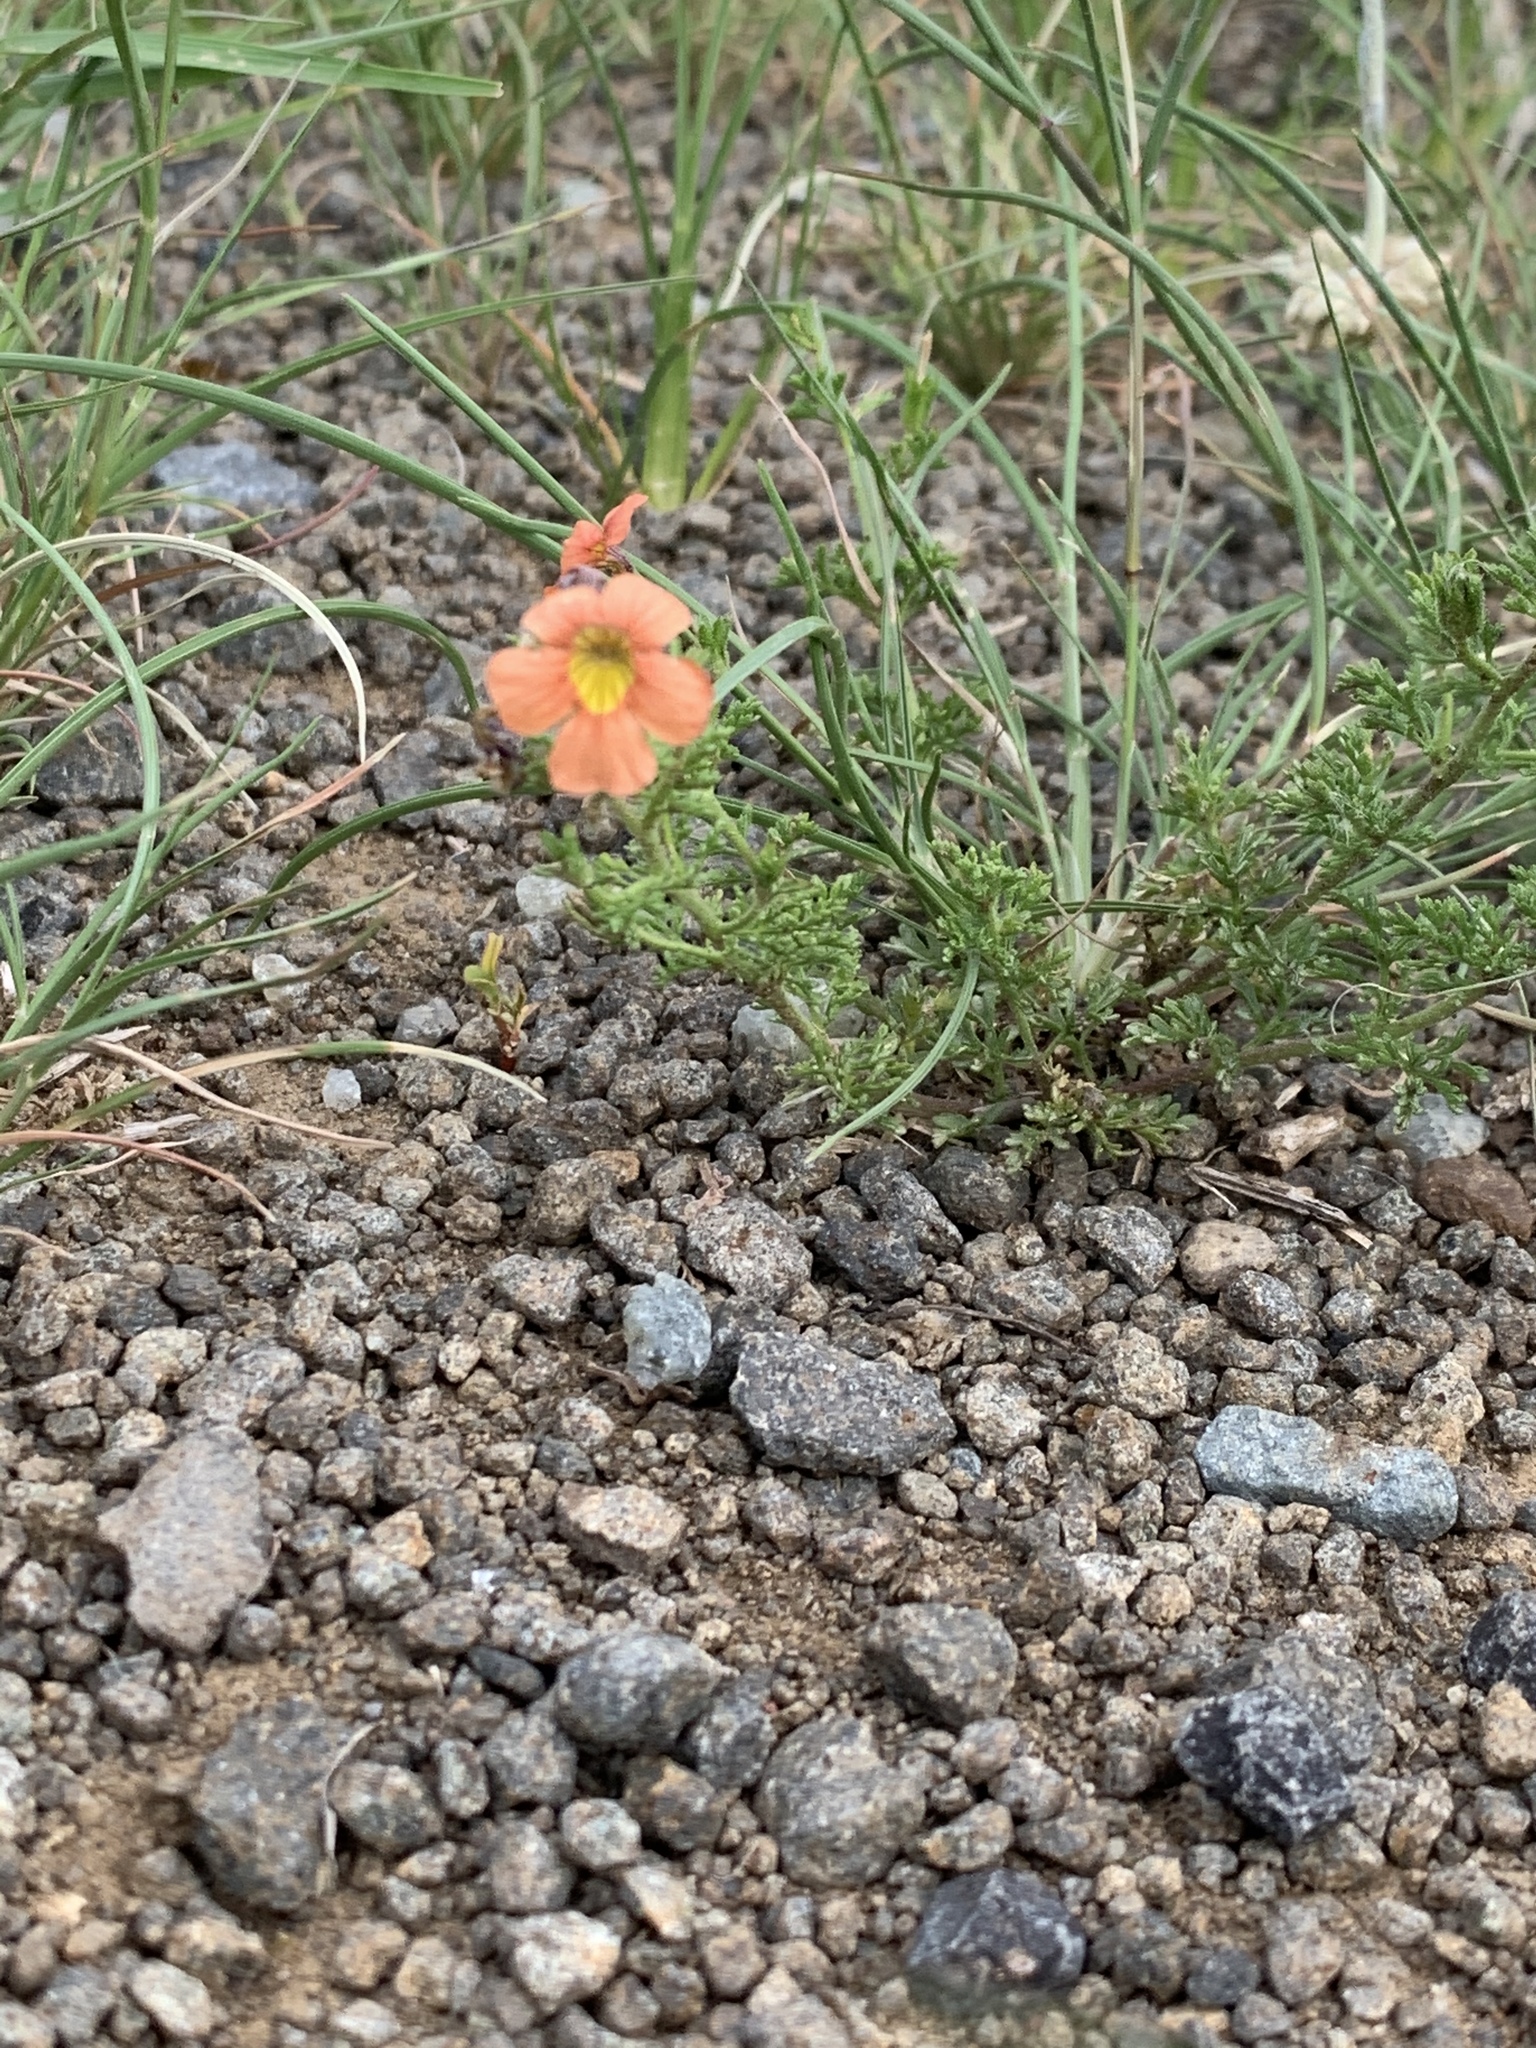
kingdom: Plantae
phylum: Tracheophyta
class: Magnoliopsida
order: Lamiales
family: Scrophulariaceae
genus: Jamesbrittenia
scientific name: Jamesbrittenia aurantiaca
